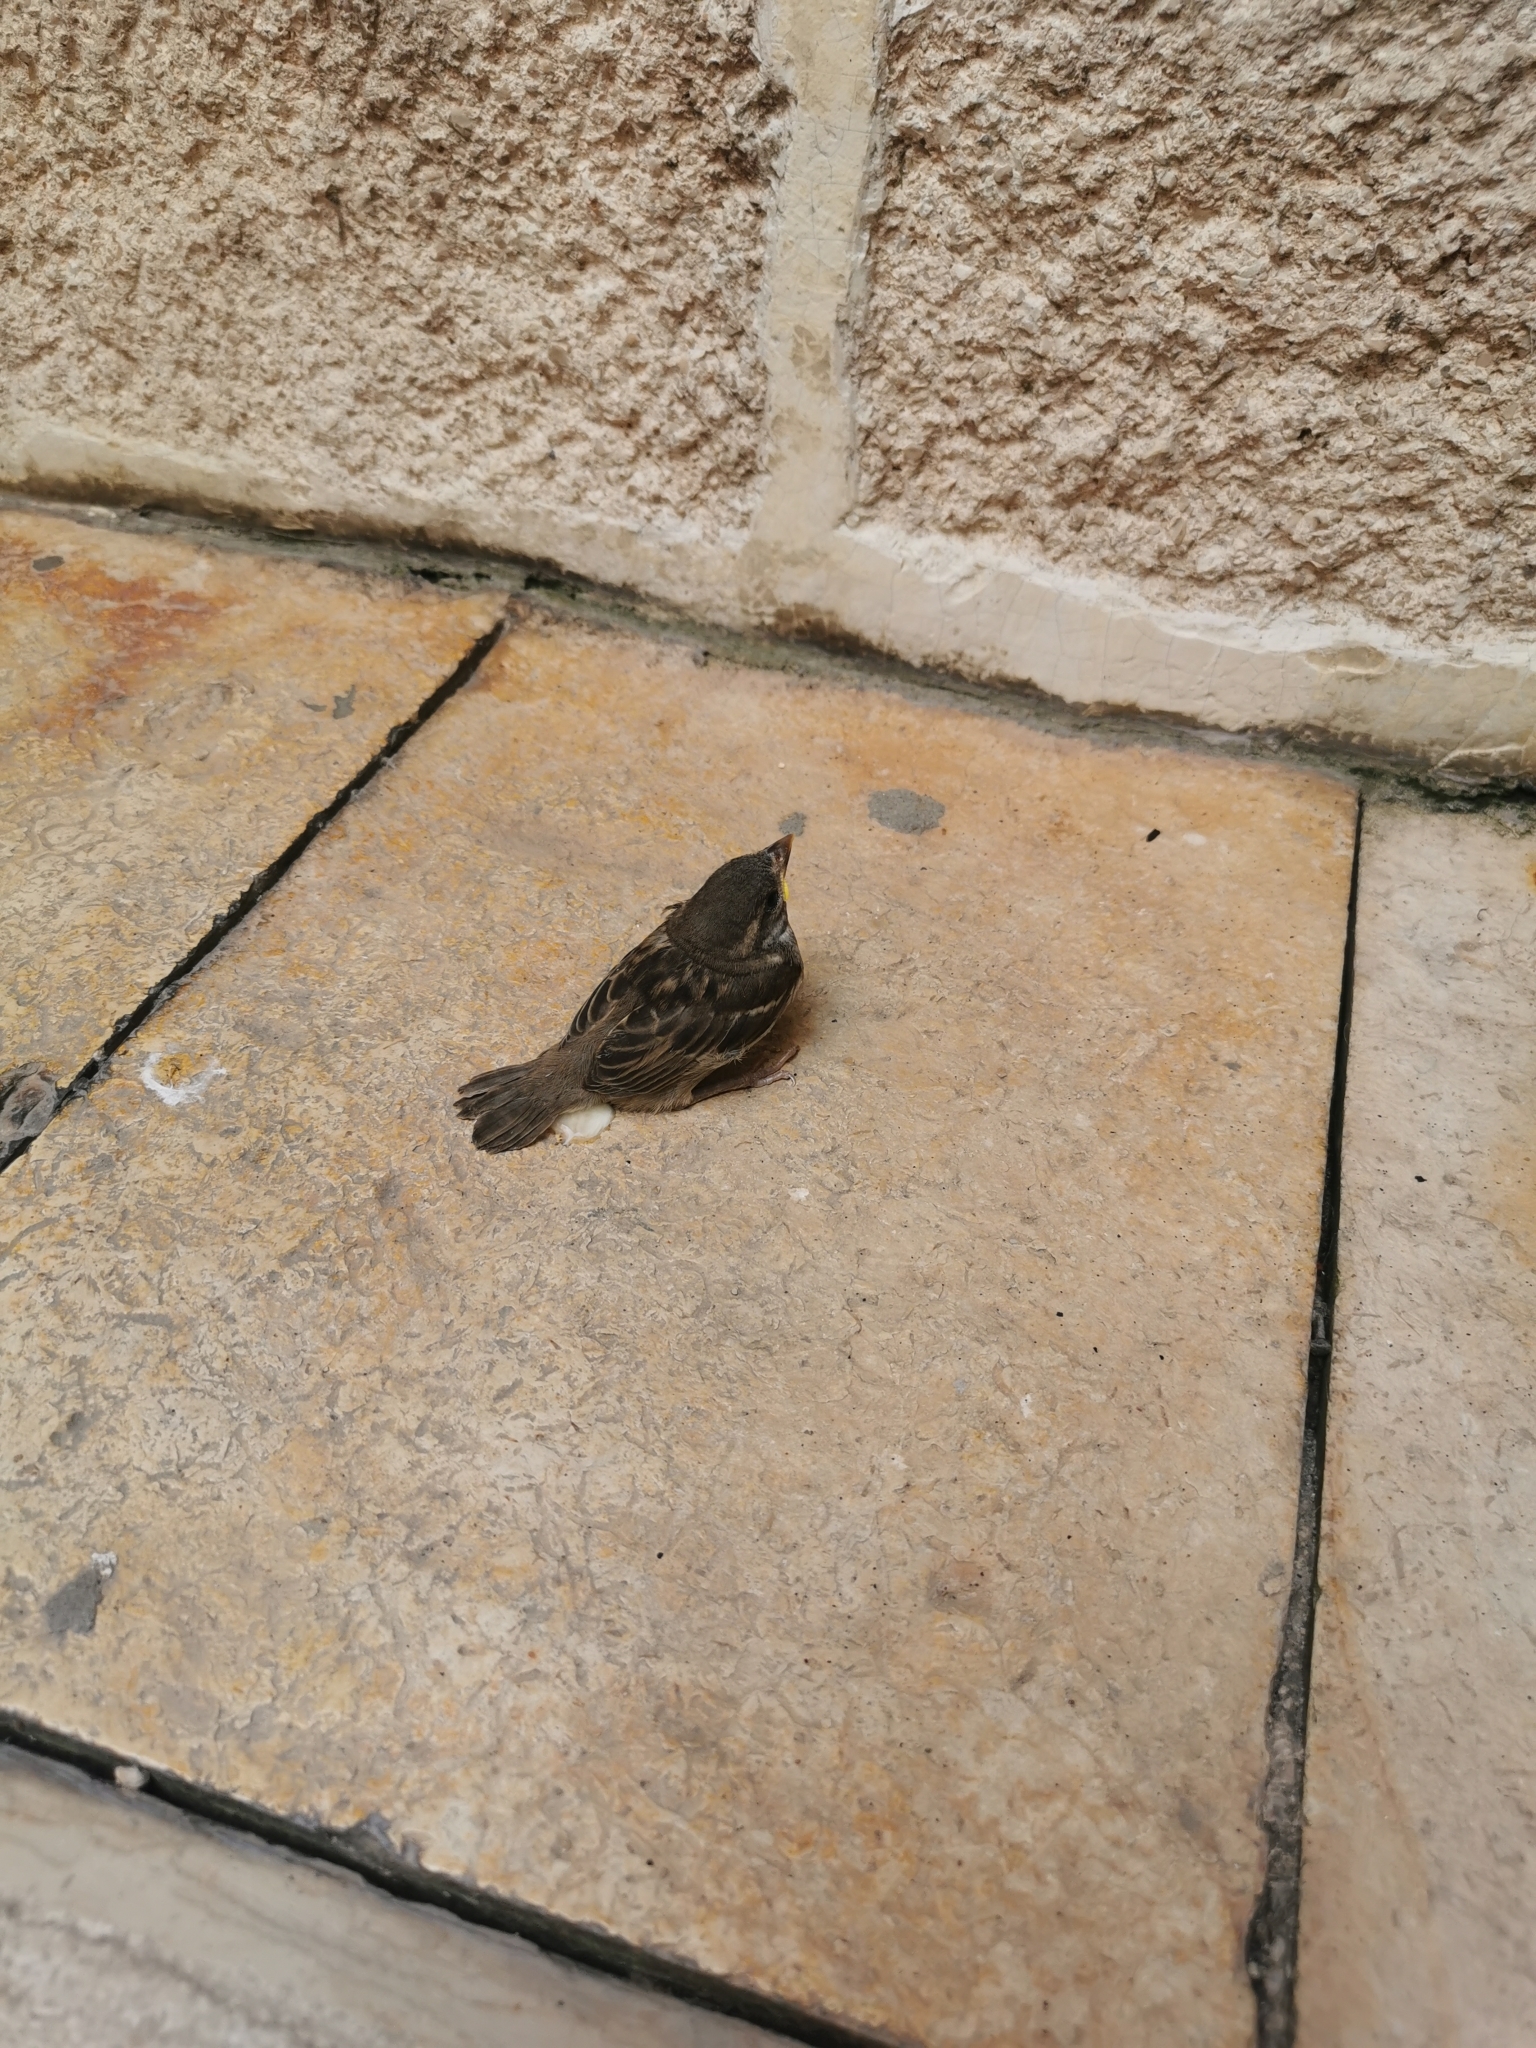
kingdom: Animalia
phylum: Chordata
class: Aves
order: Passeriformes
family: Passeridae
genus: Passer
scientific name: Passer domesticus
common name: House sparrow
